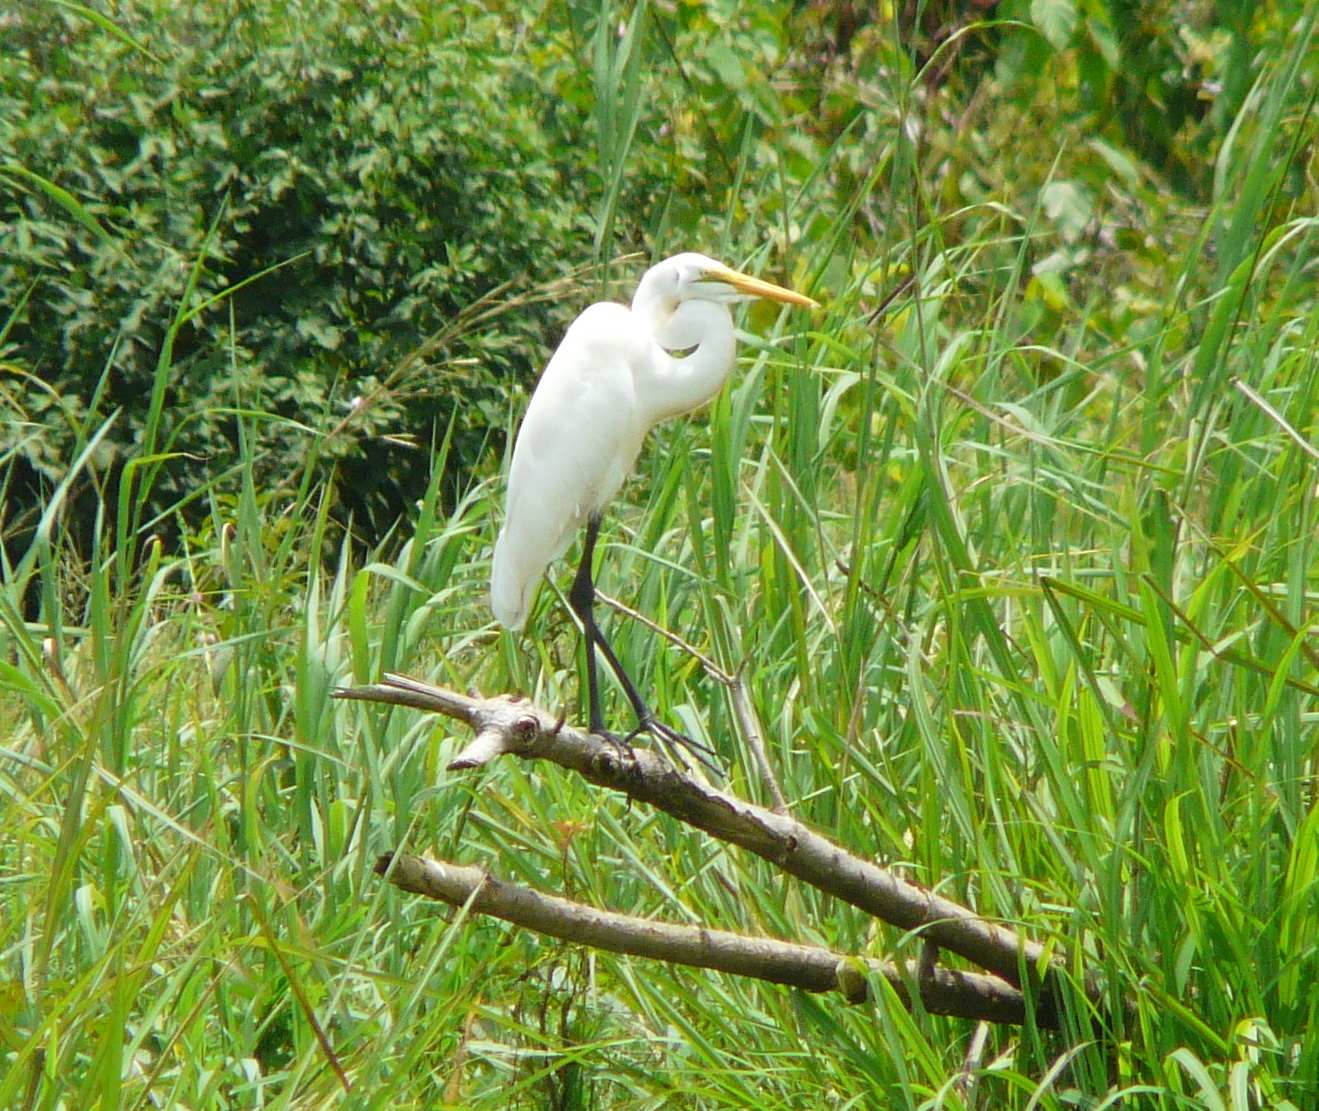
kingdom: Animalia
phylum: Chordata
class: Aves
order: Pelecaniformes
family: Ardeidae
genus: Ardea
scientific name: Ardea alba
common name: Great egret
